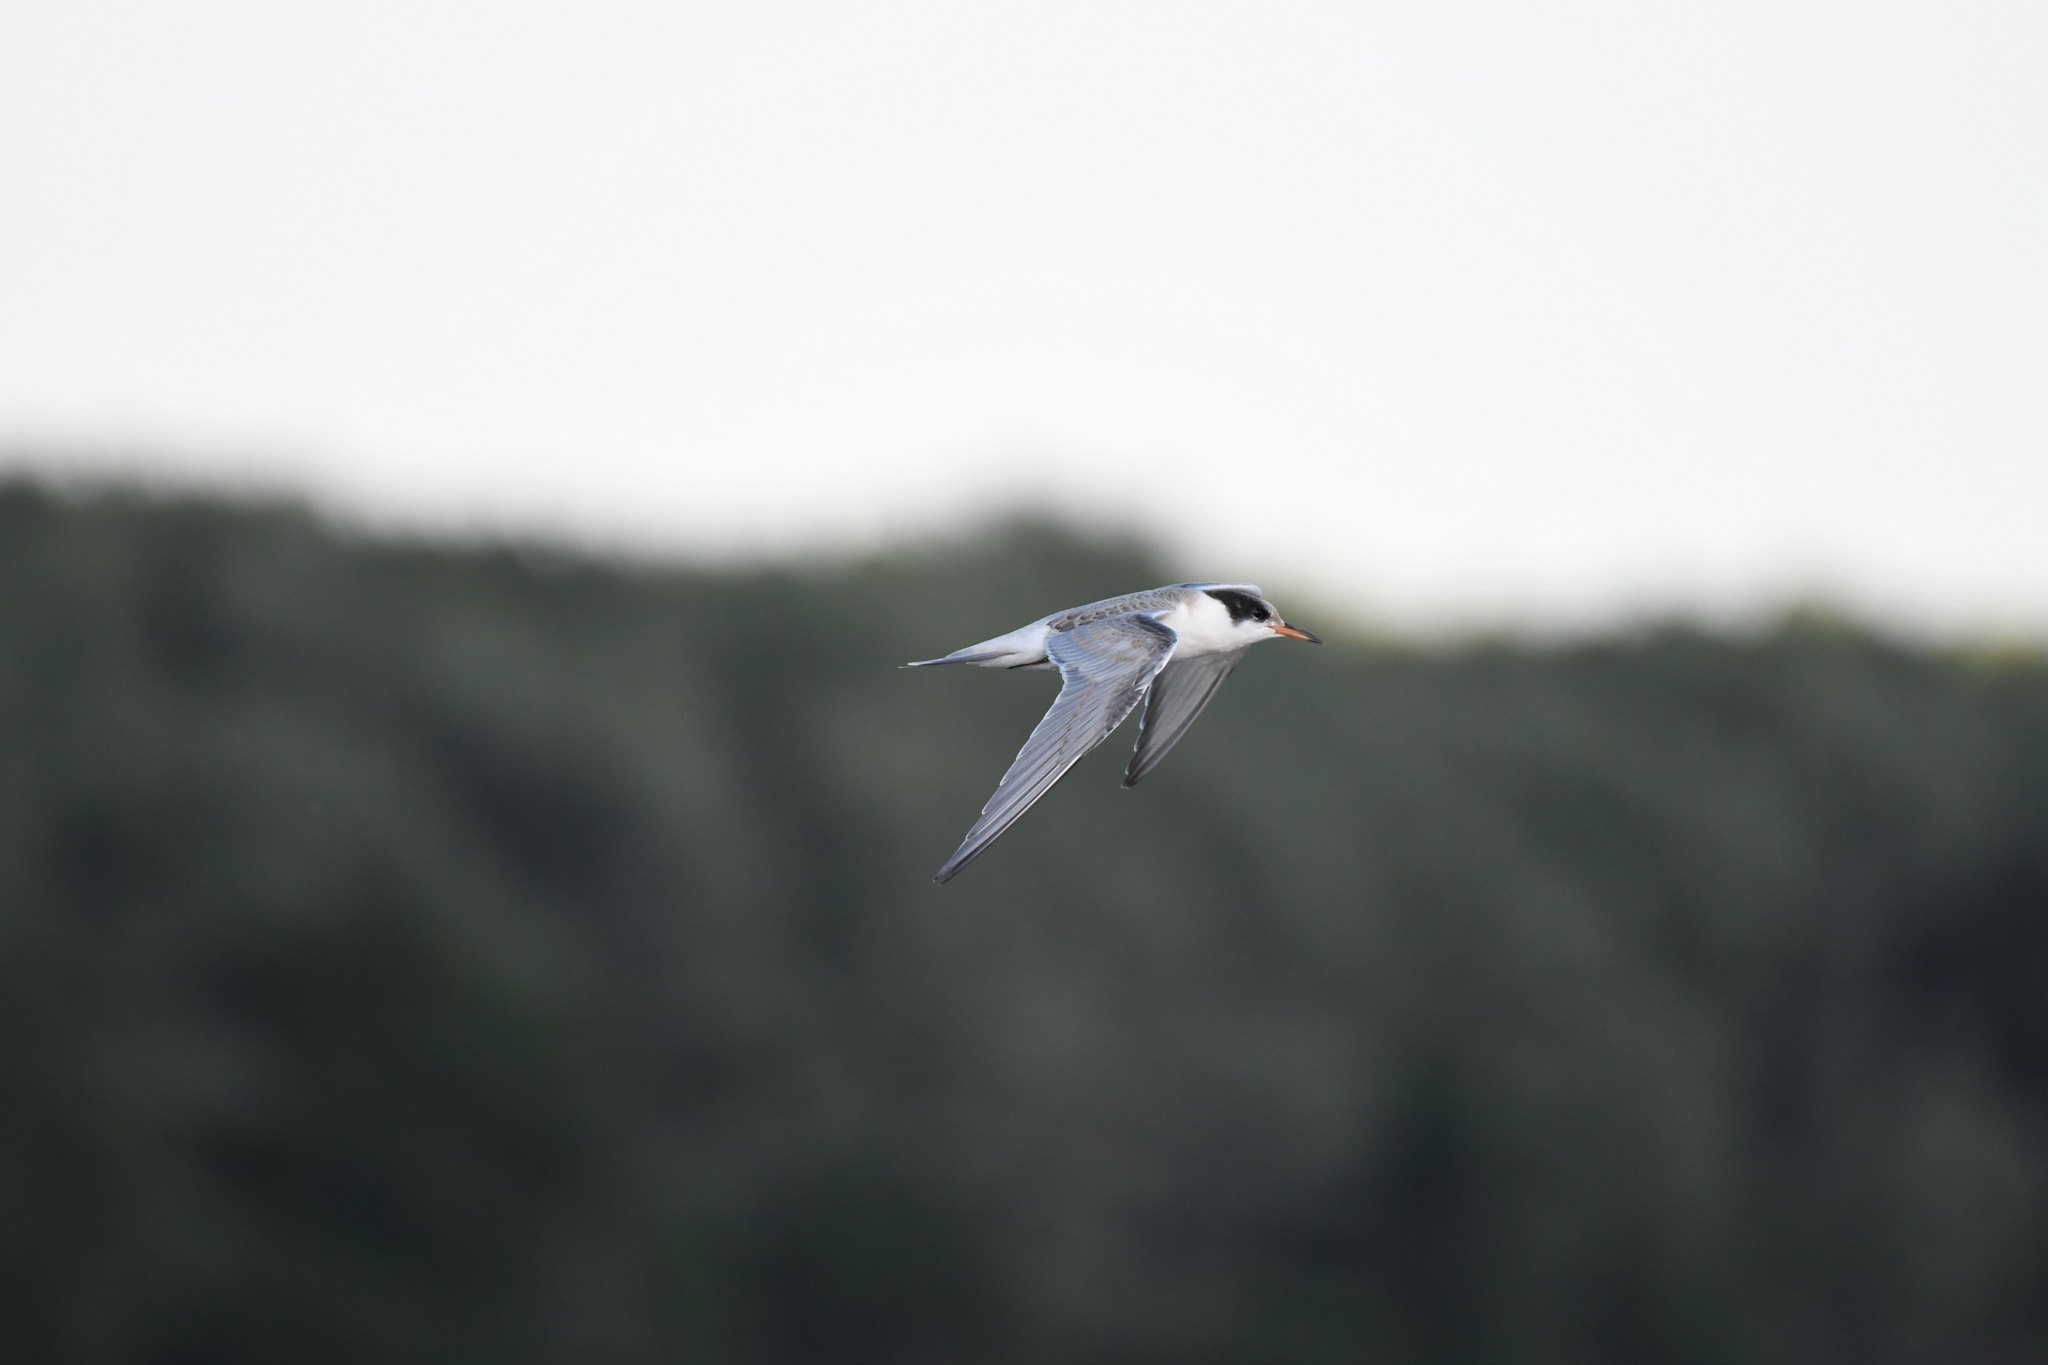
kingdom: Animalia
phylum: Chordata
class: Aves
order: Charadriiformes
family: Laridae
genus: Sterna
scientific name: Sterna hirundo
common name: Common tern
